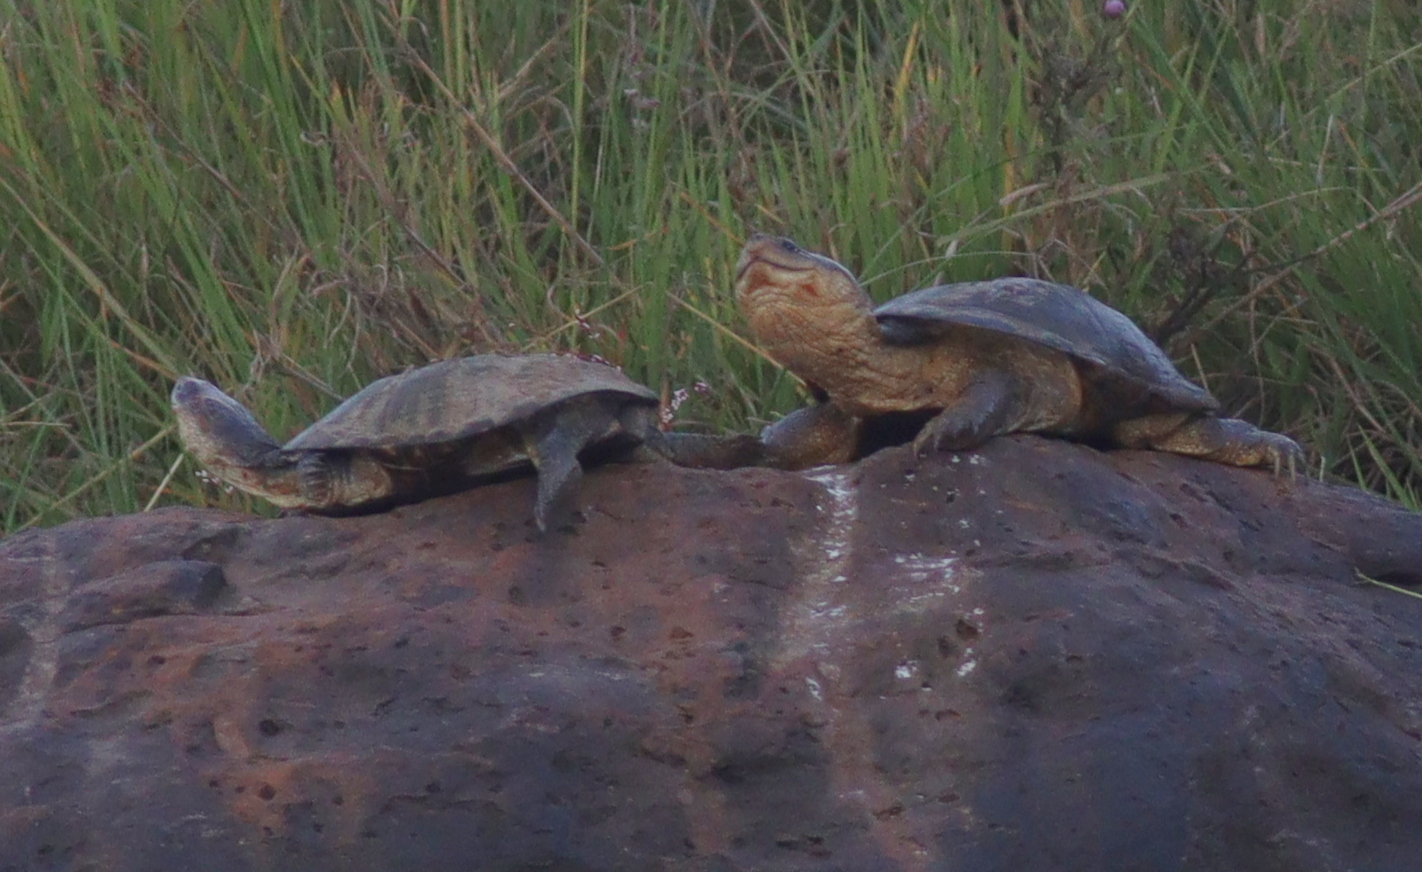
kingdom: Animalia
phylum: Chordata
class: Testudines
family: Pelomedusidae
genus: Pelomedusa
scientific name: Pelomedusa neumanni
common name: Neumann’s marsh terrapin
